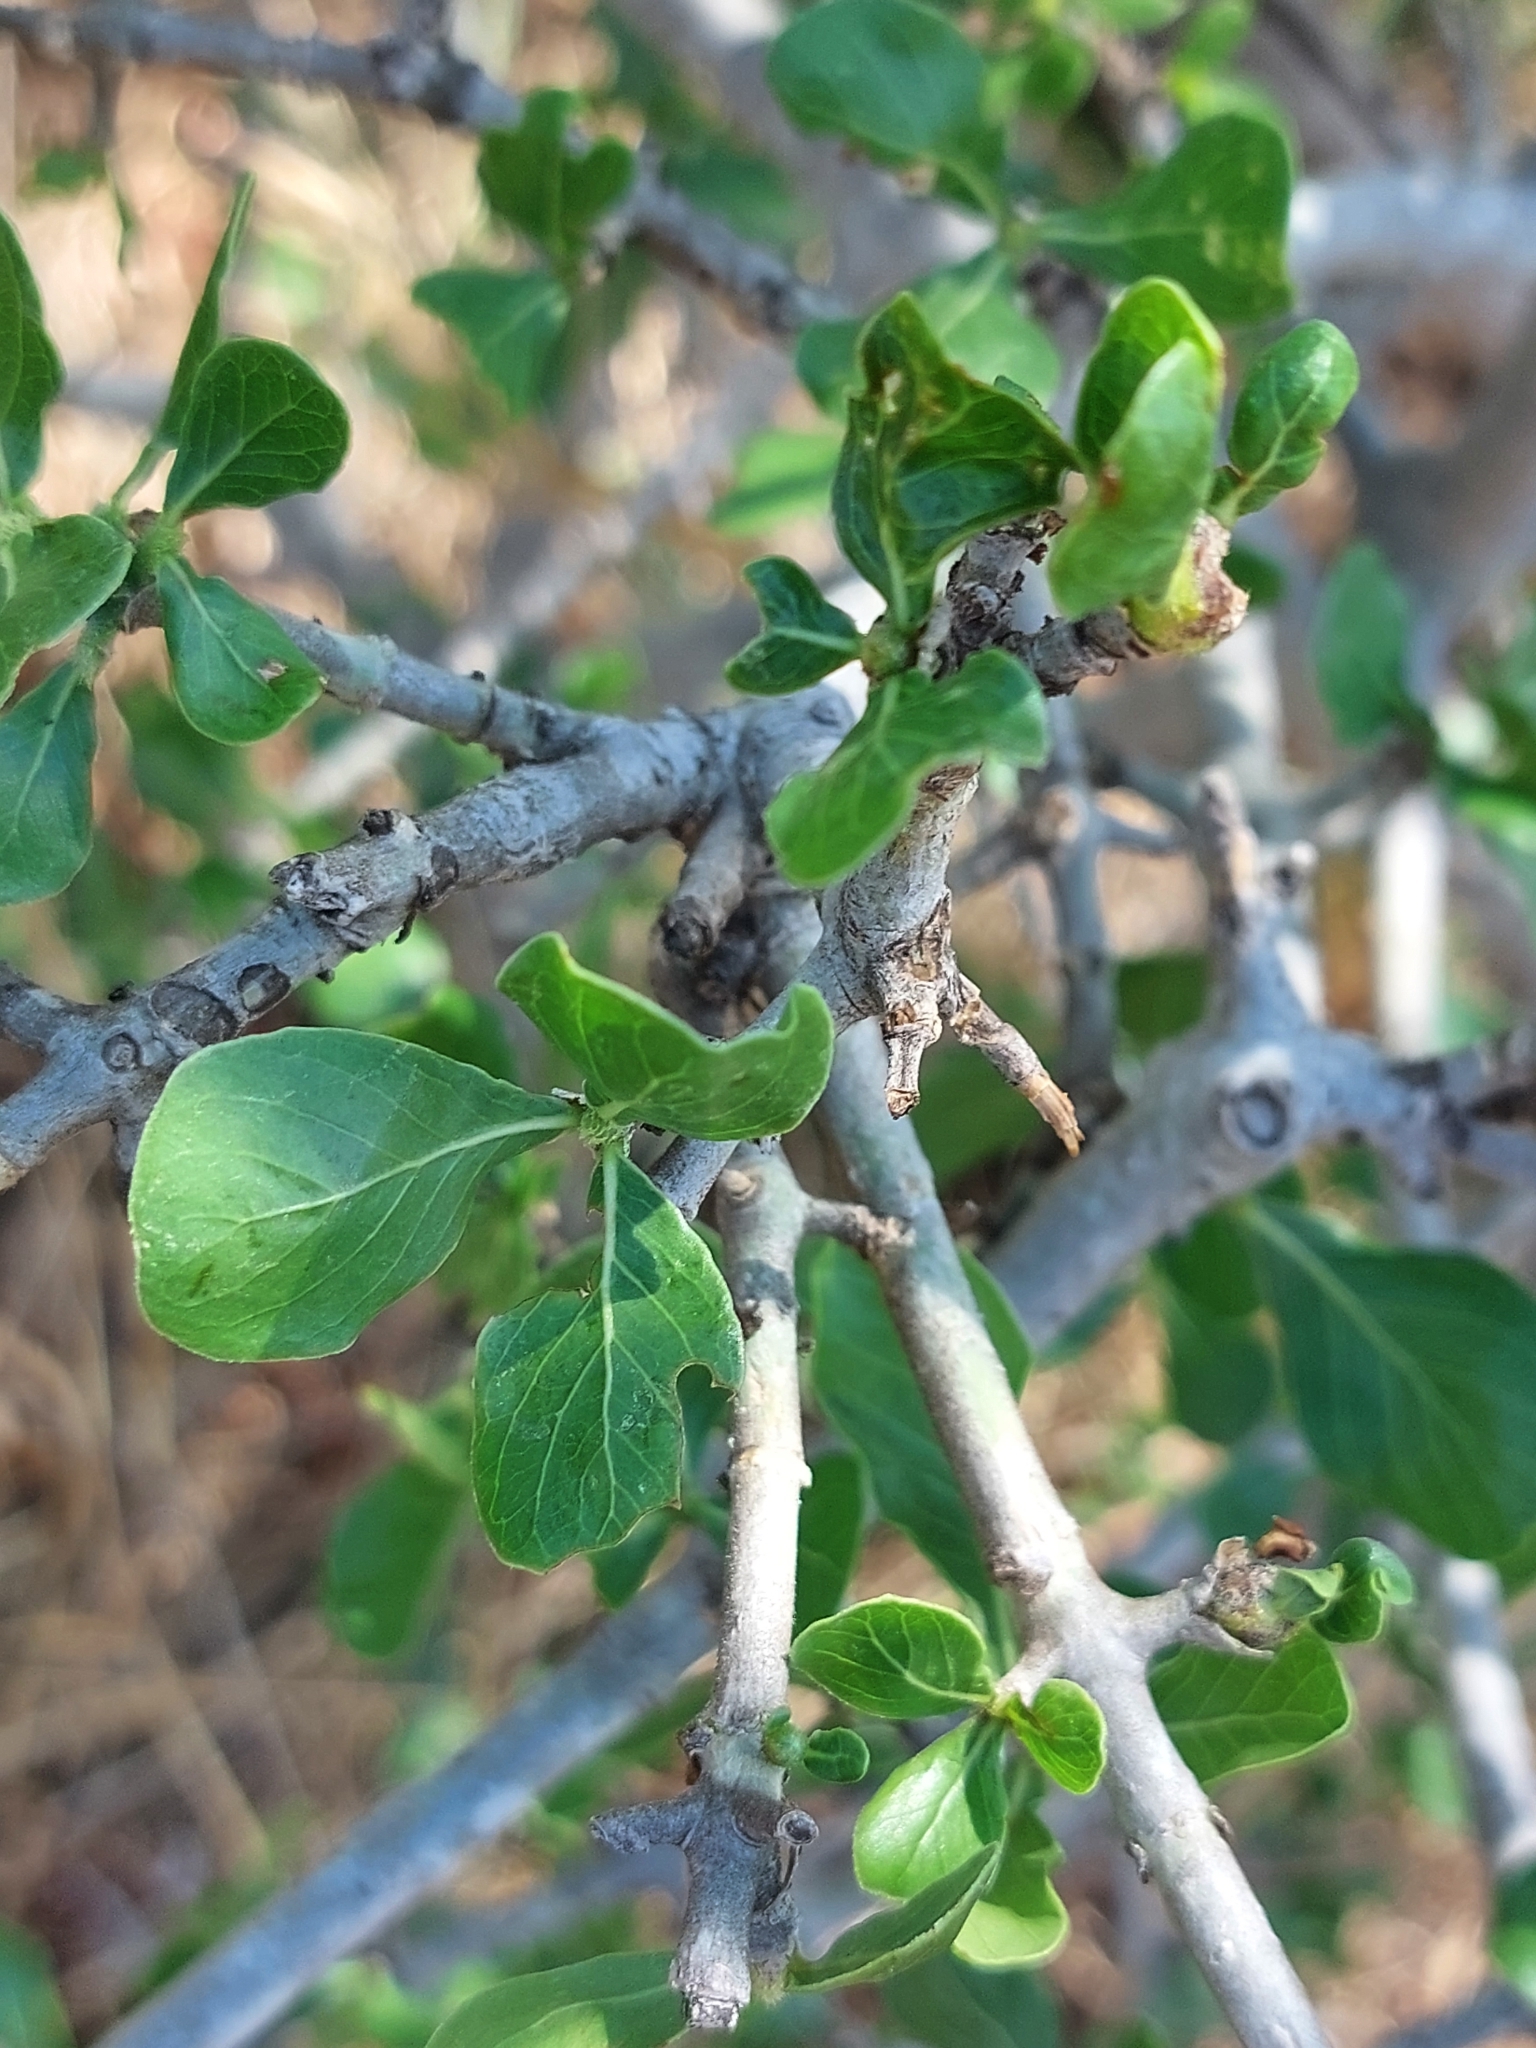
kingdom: Plantae
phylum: Tracheophyta
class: Magnoliopsida
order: Gentianales
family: Rubiaceae
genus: Gardenia
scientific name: Gardenia volkensii
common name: Common gardenia
